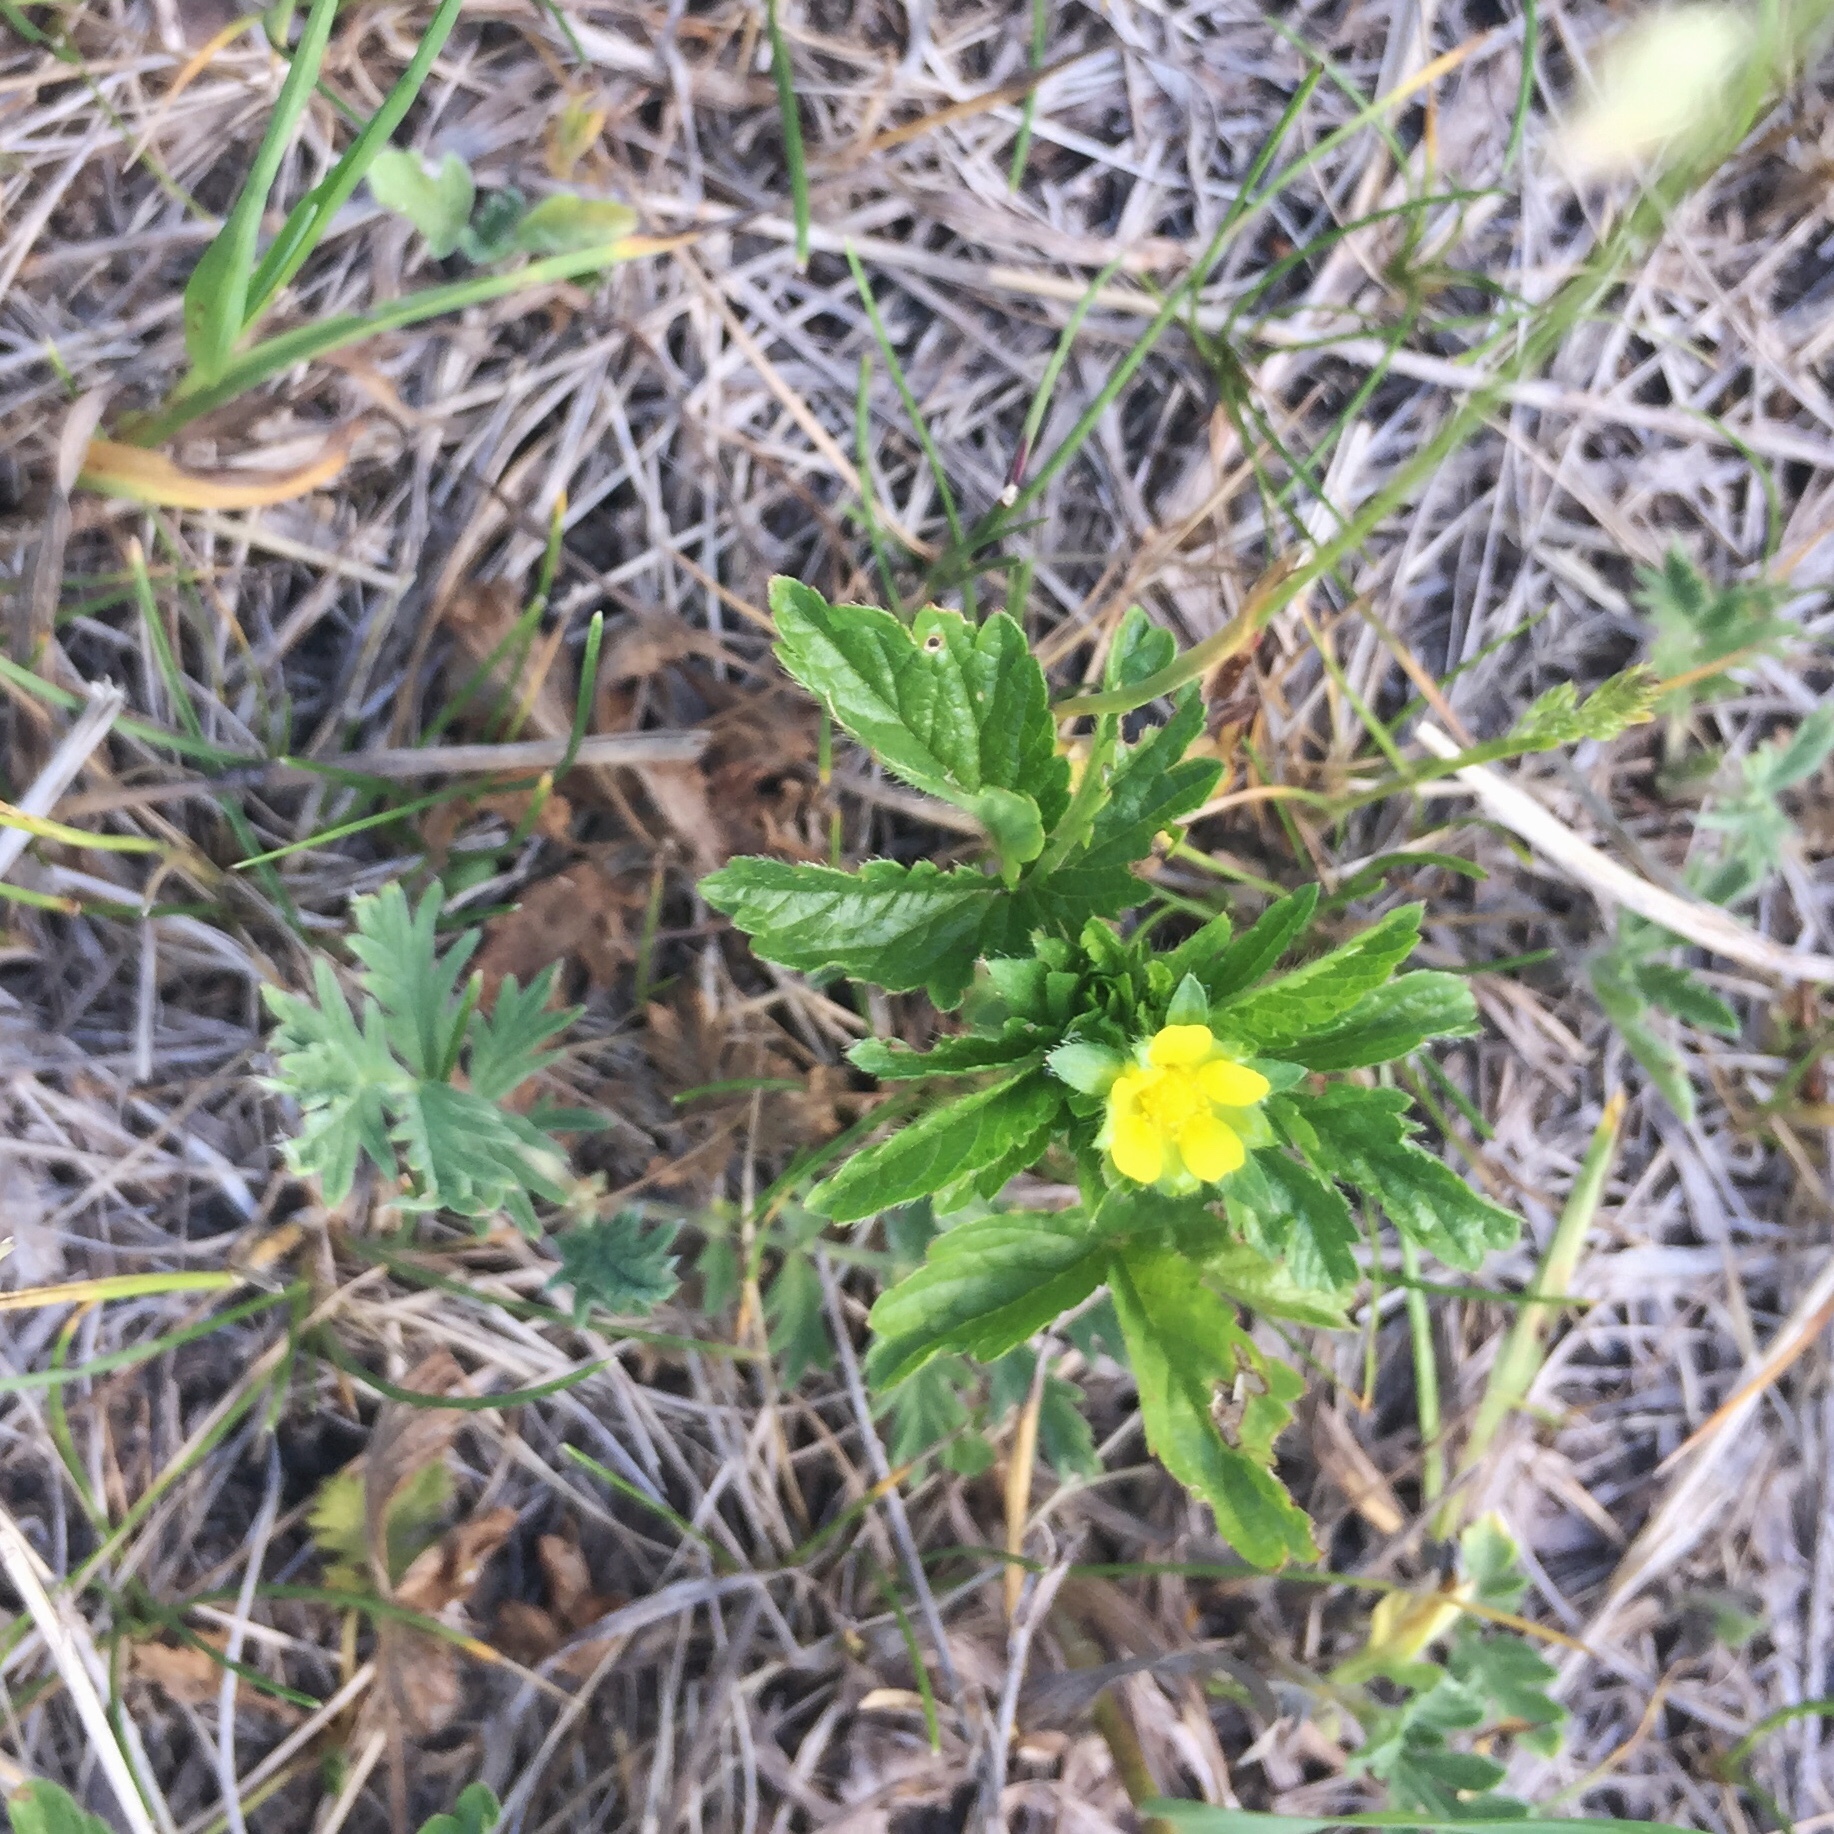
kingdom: Plantae
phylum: Tracheophyta
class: Magnoliopsida
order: Rosales
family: Rosaceae
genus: Potentilla
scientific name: Potentilla norvegica
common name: Ternate-leaved cinquefoil
